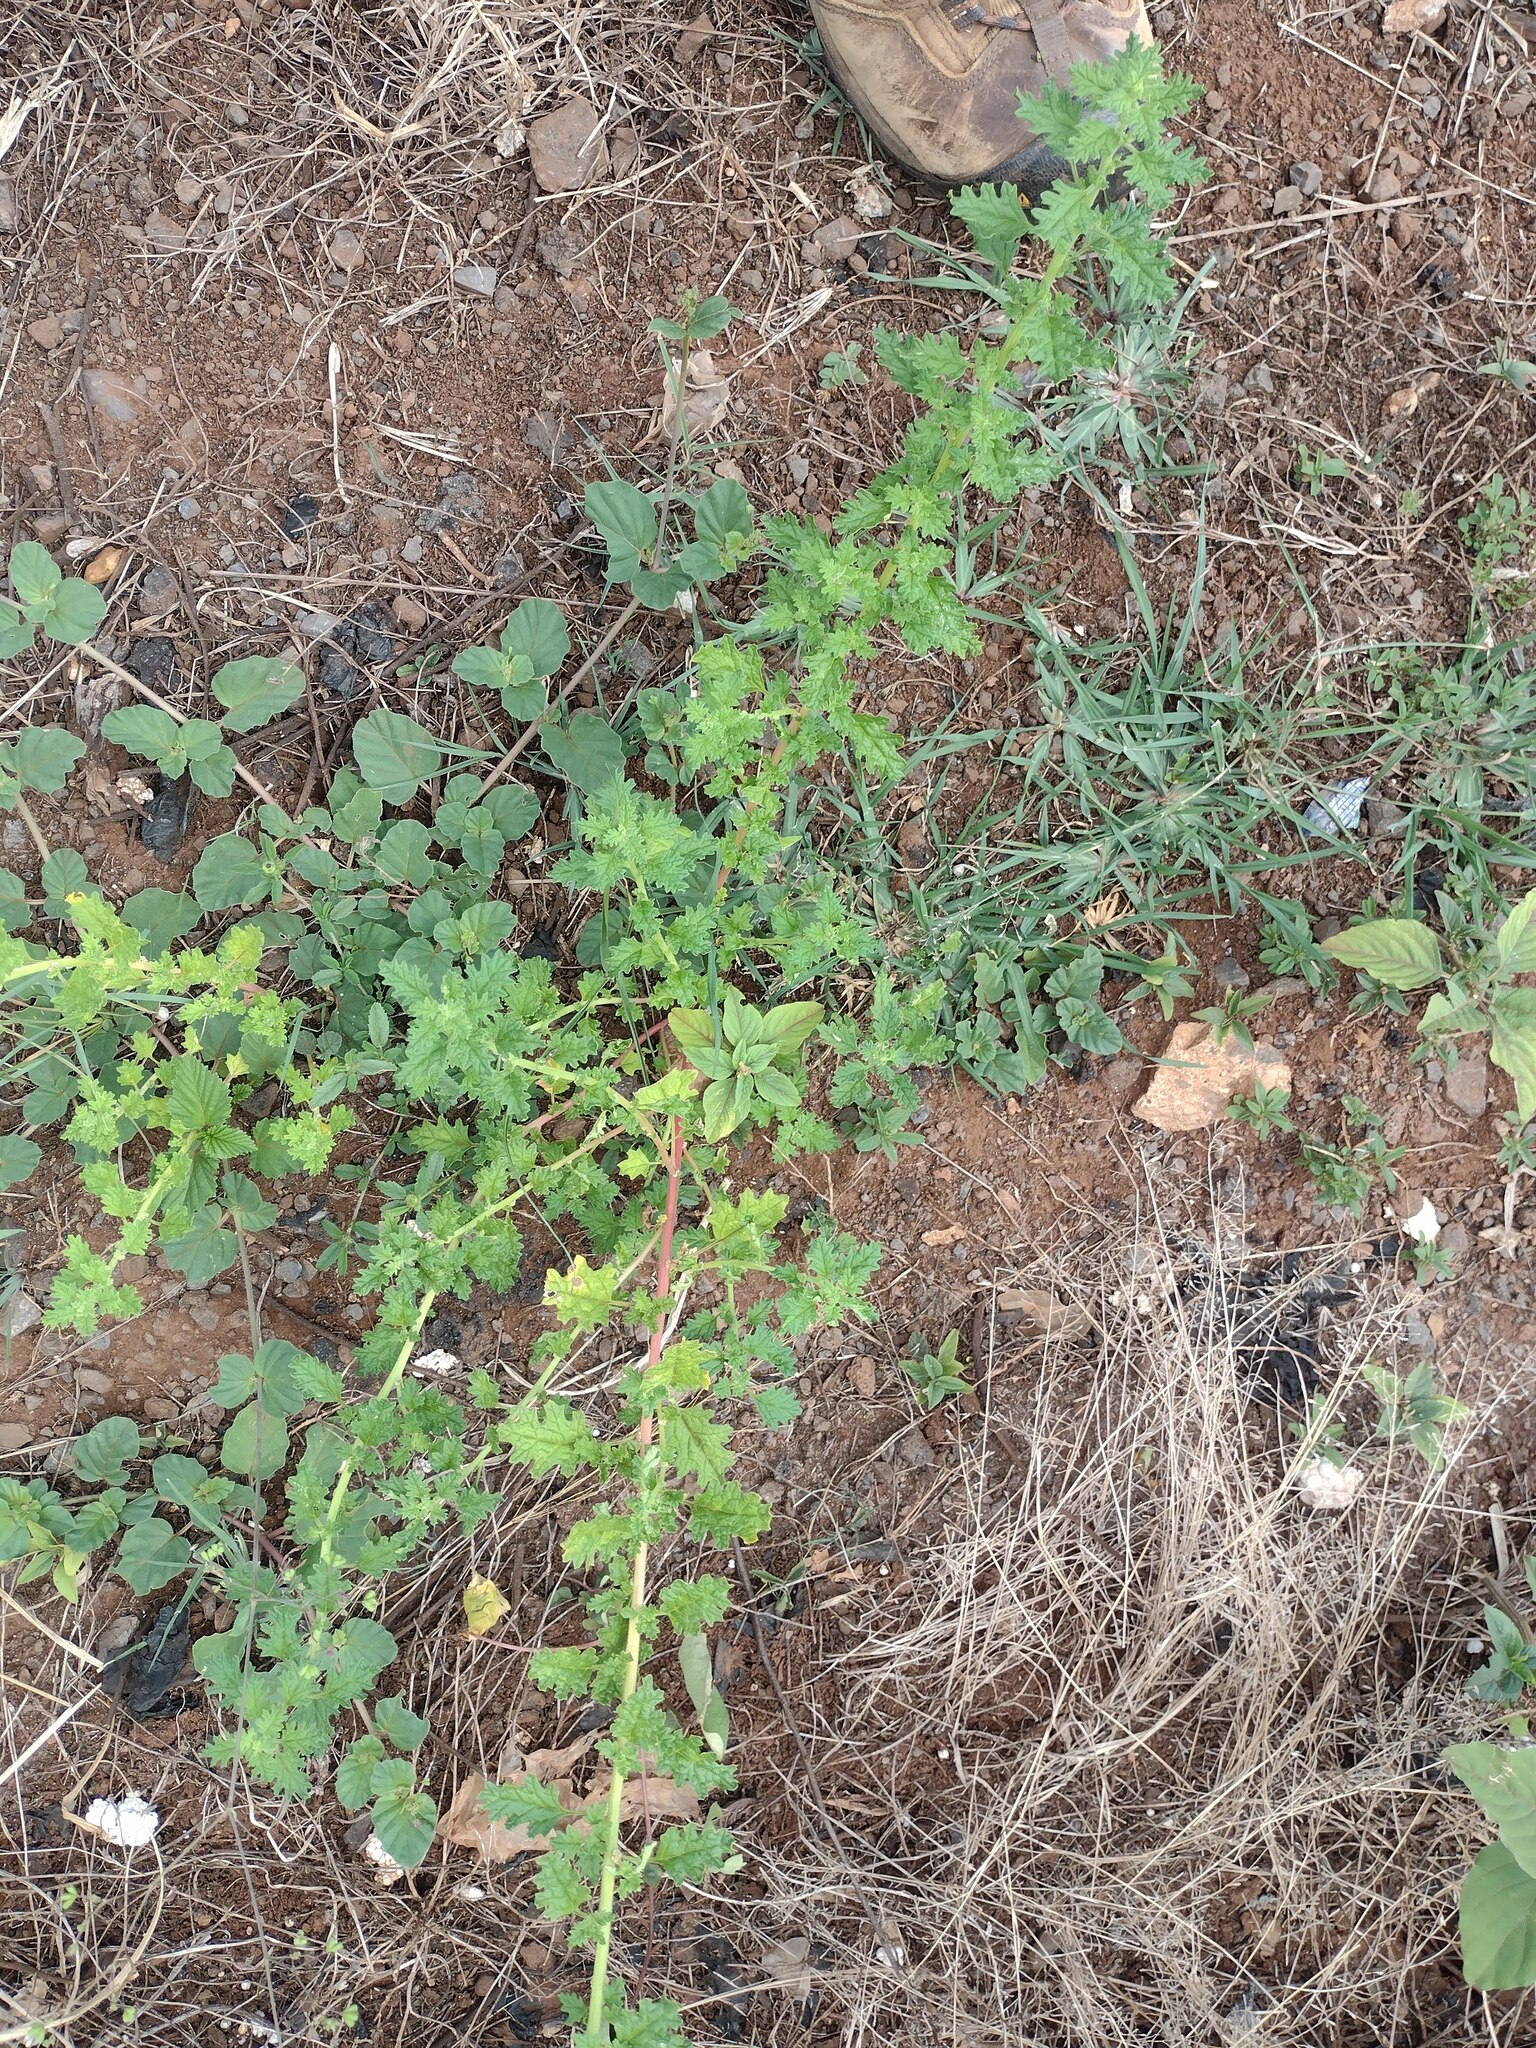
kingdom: Plantae
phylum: Tracheophyta
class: Magnoliopsida
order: Caryophyllales
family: Amaranthaceae
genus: Dysphania
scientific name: Dysphania carinata
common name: Keeled wormseed
